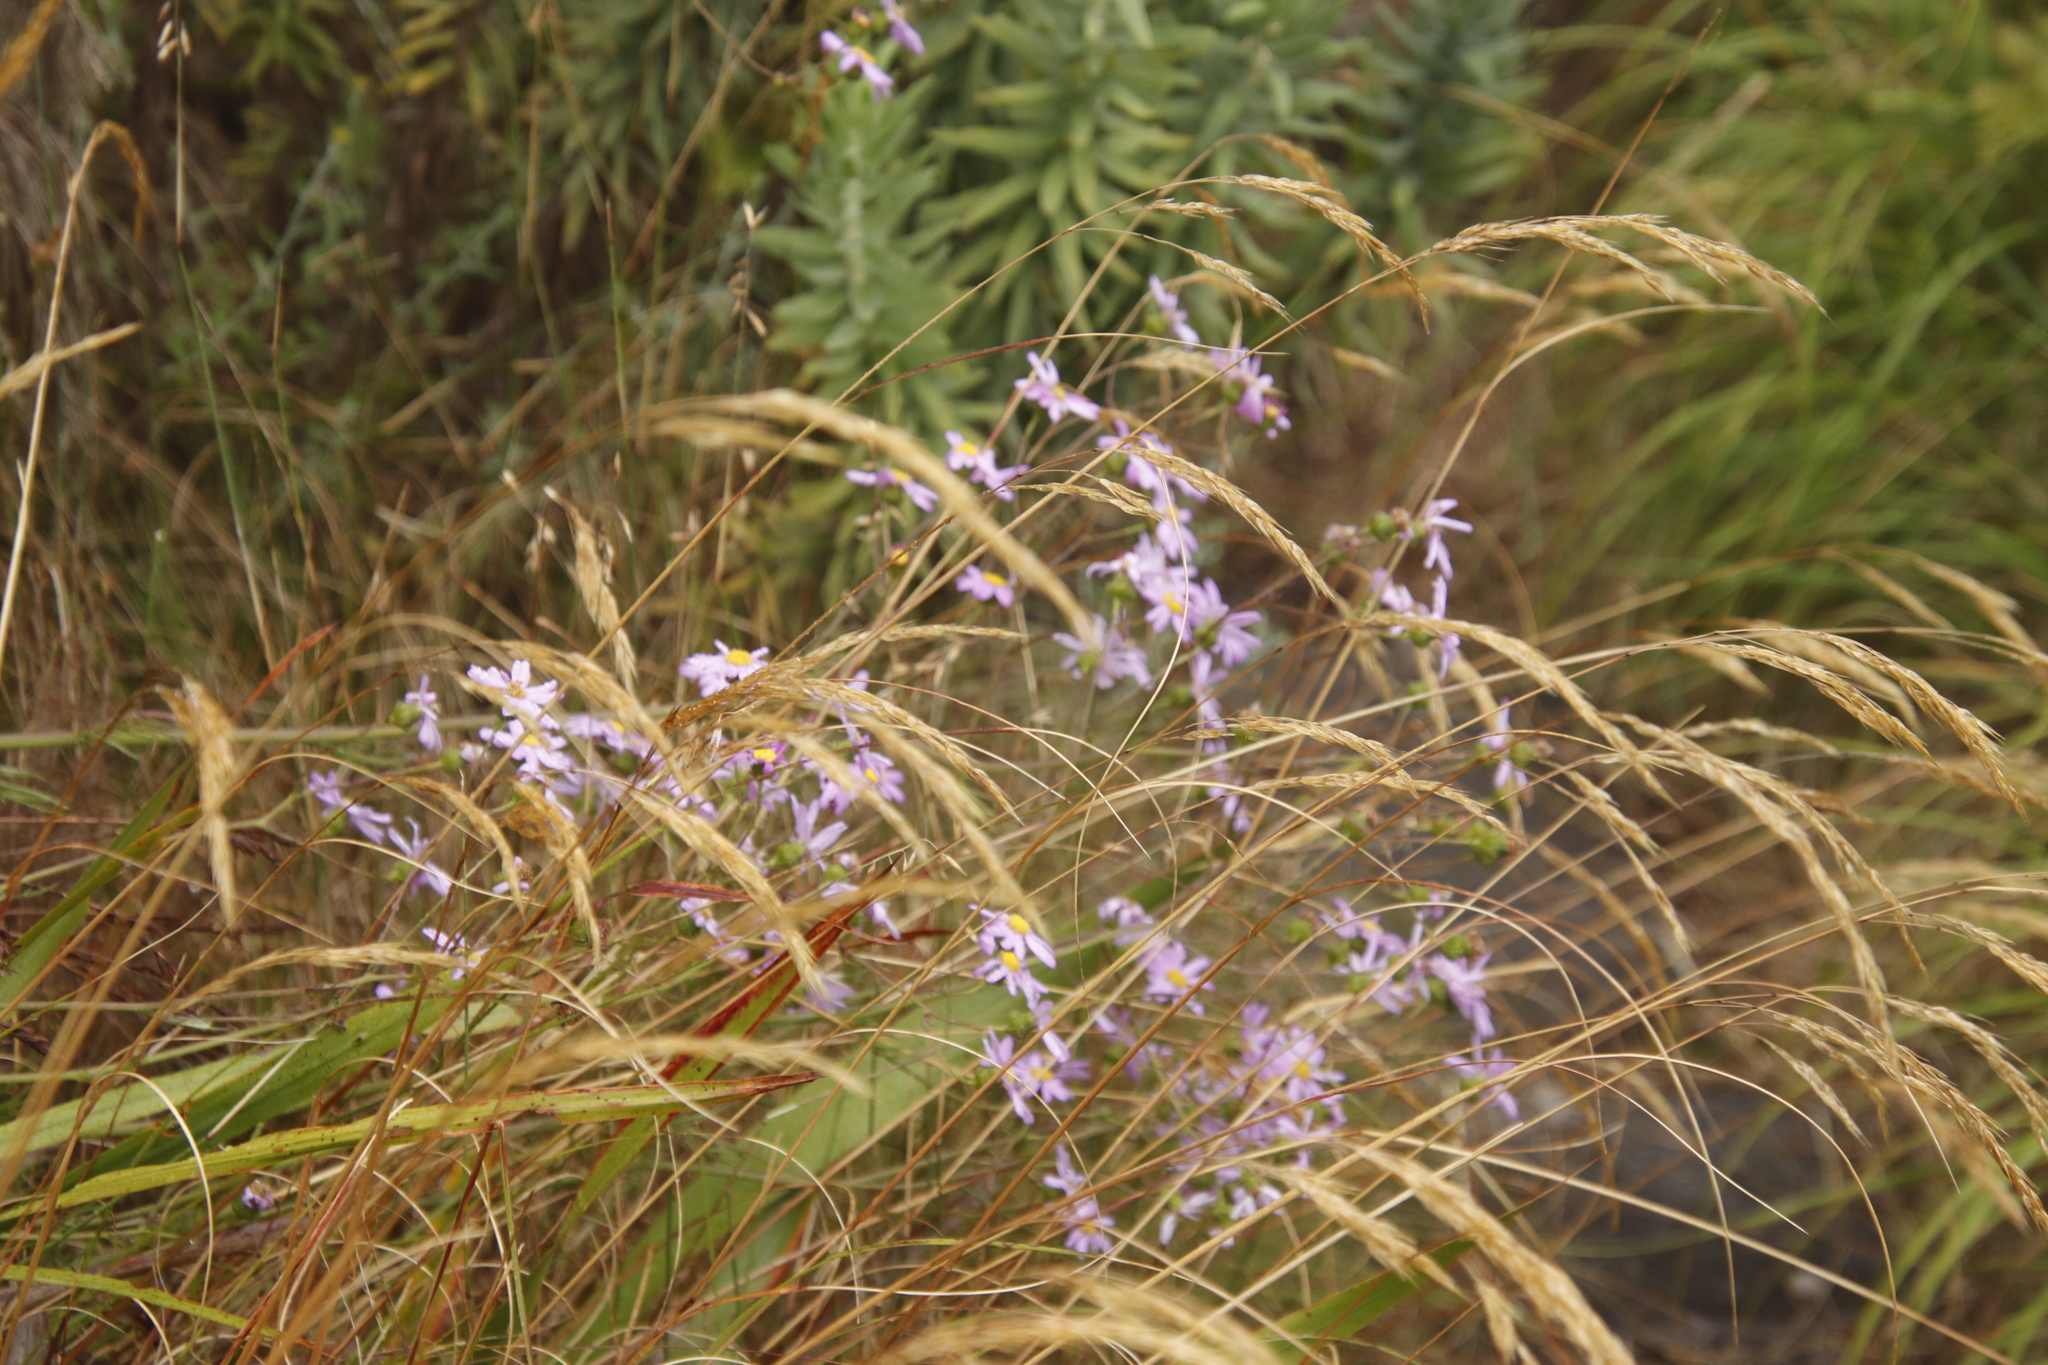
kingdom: Plantae
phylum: Tracheophyta
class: Magnoliopsida
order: Asterales
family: Asteraceae
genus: Senecio
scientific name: Senecio umbellatus
